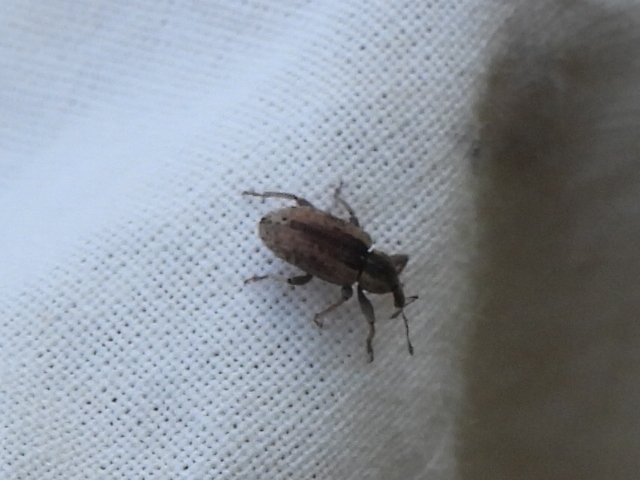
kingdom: Animalia
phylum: Arthropoda
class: Insecta
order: Coleoptera
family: Curculionidae
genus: Hypera
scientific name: Hypera postica
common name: Weevil
